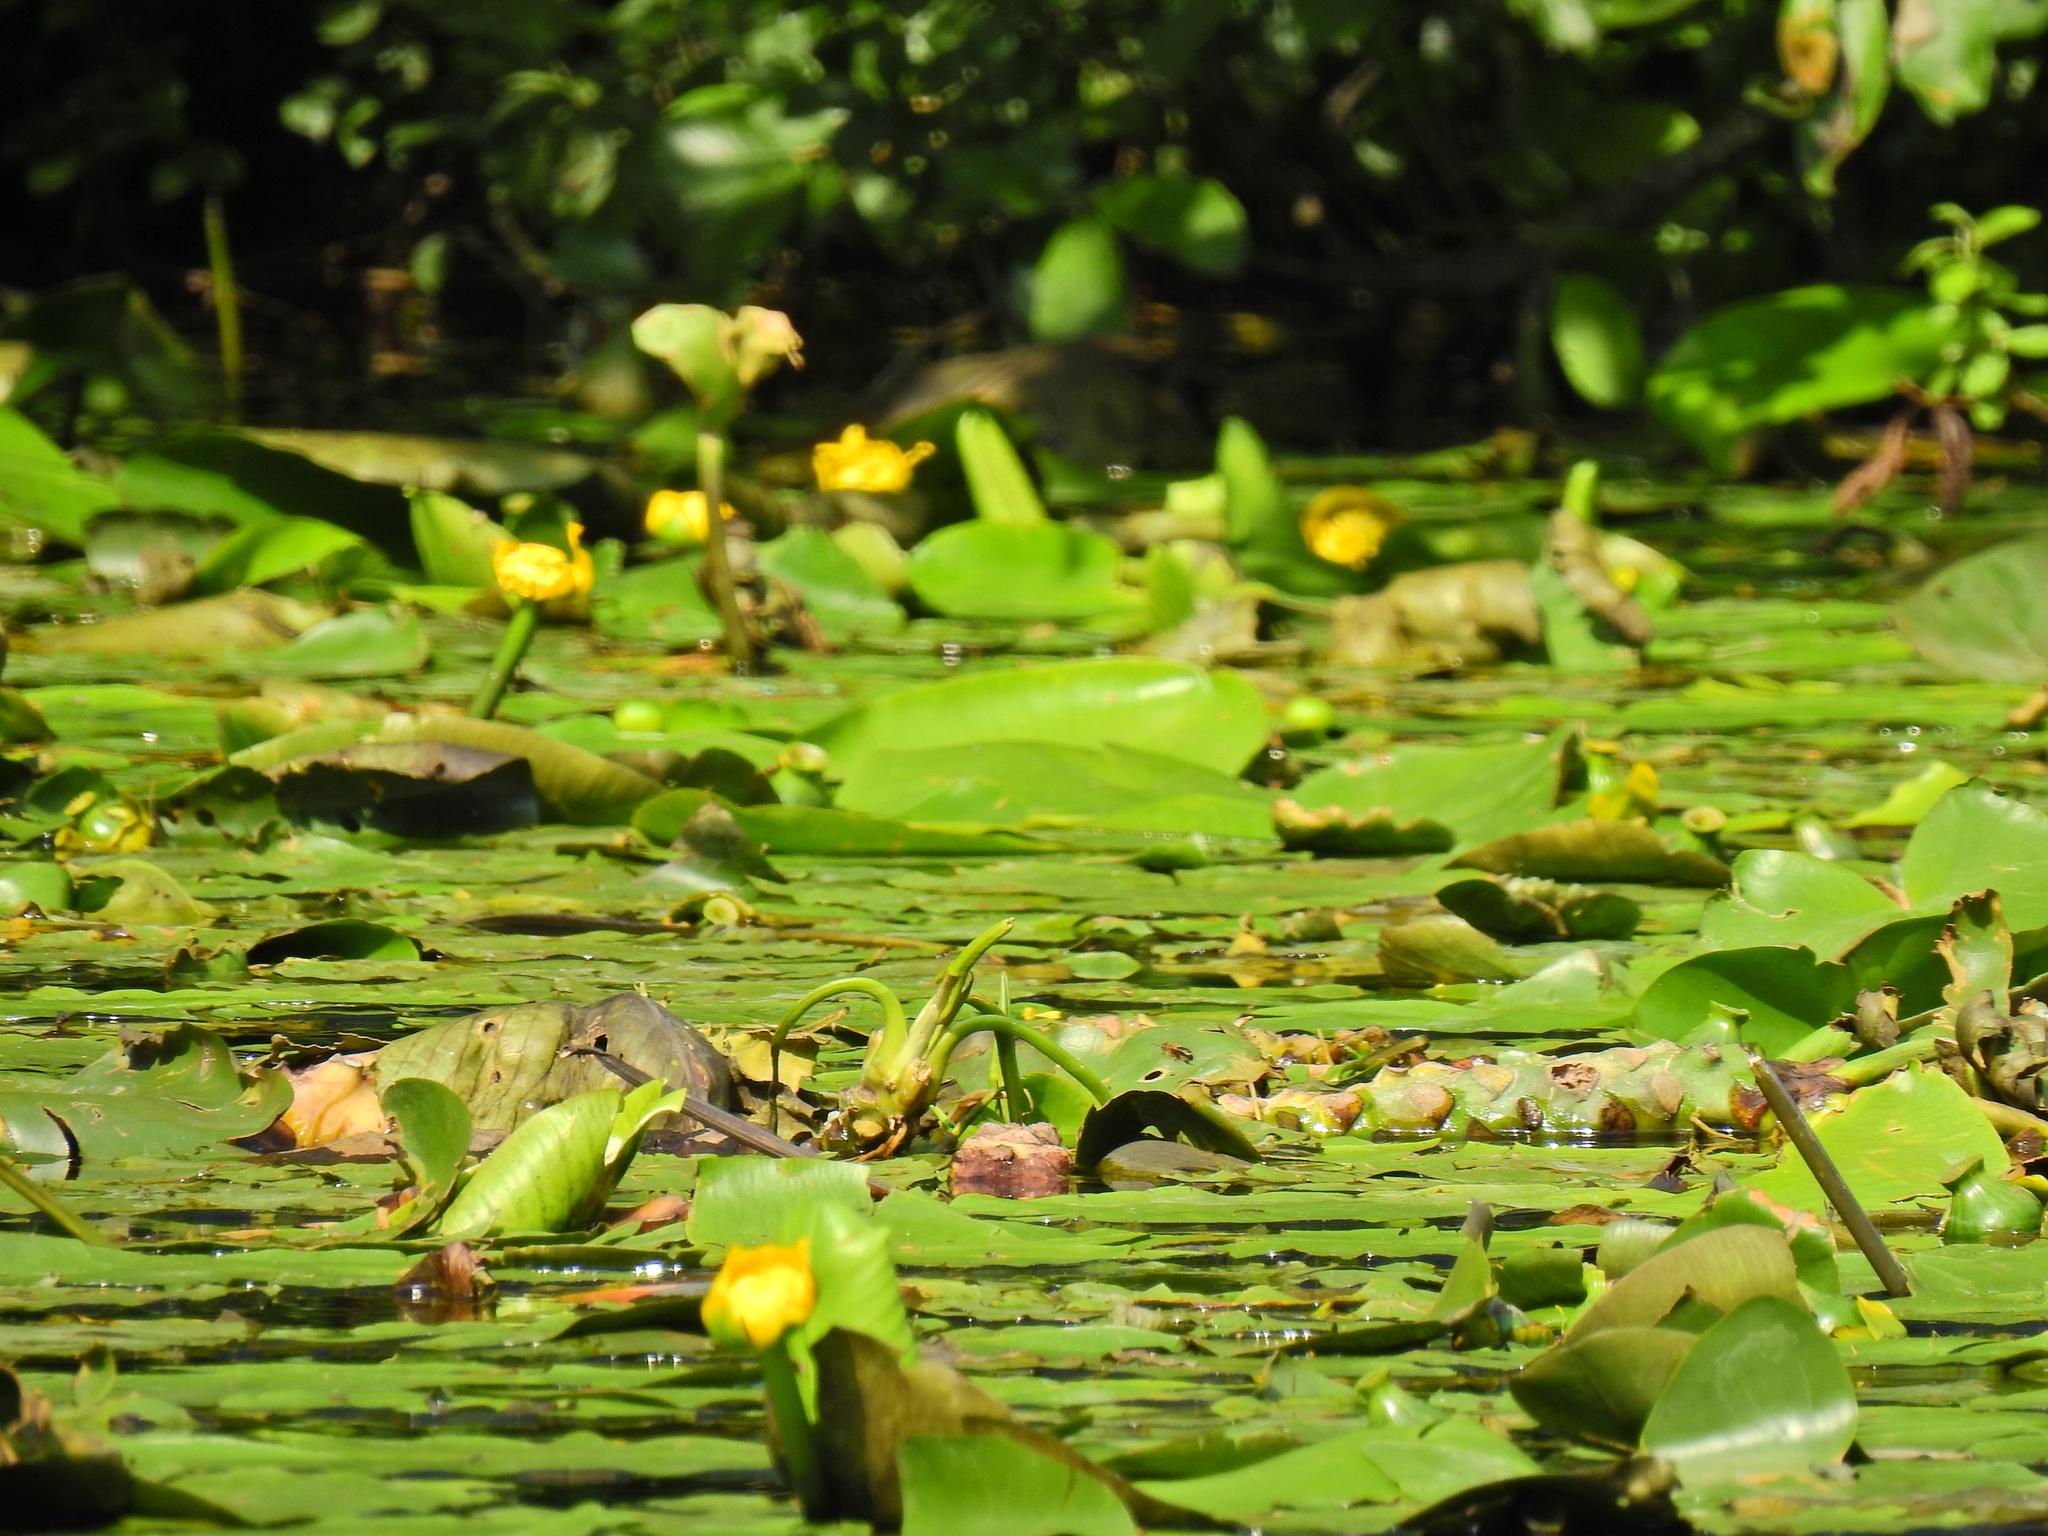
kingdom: Plantae
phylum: Tracheophyta
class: Magnoliopsida
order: Nymphaeales
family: Nymphaeaceae
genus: Nuphar
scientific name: Nuphar lutea
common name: Yellow water-lily
